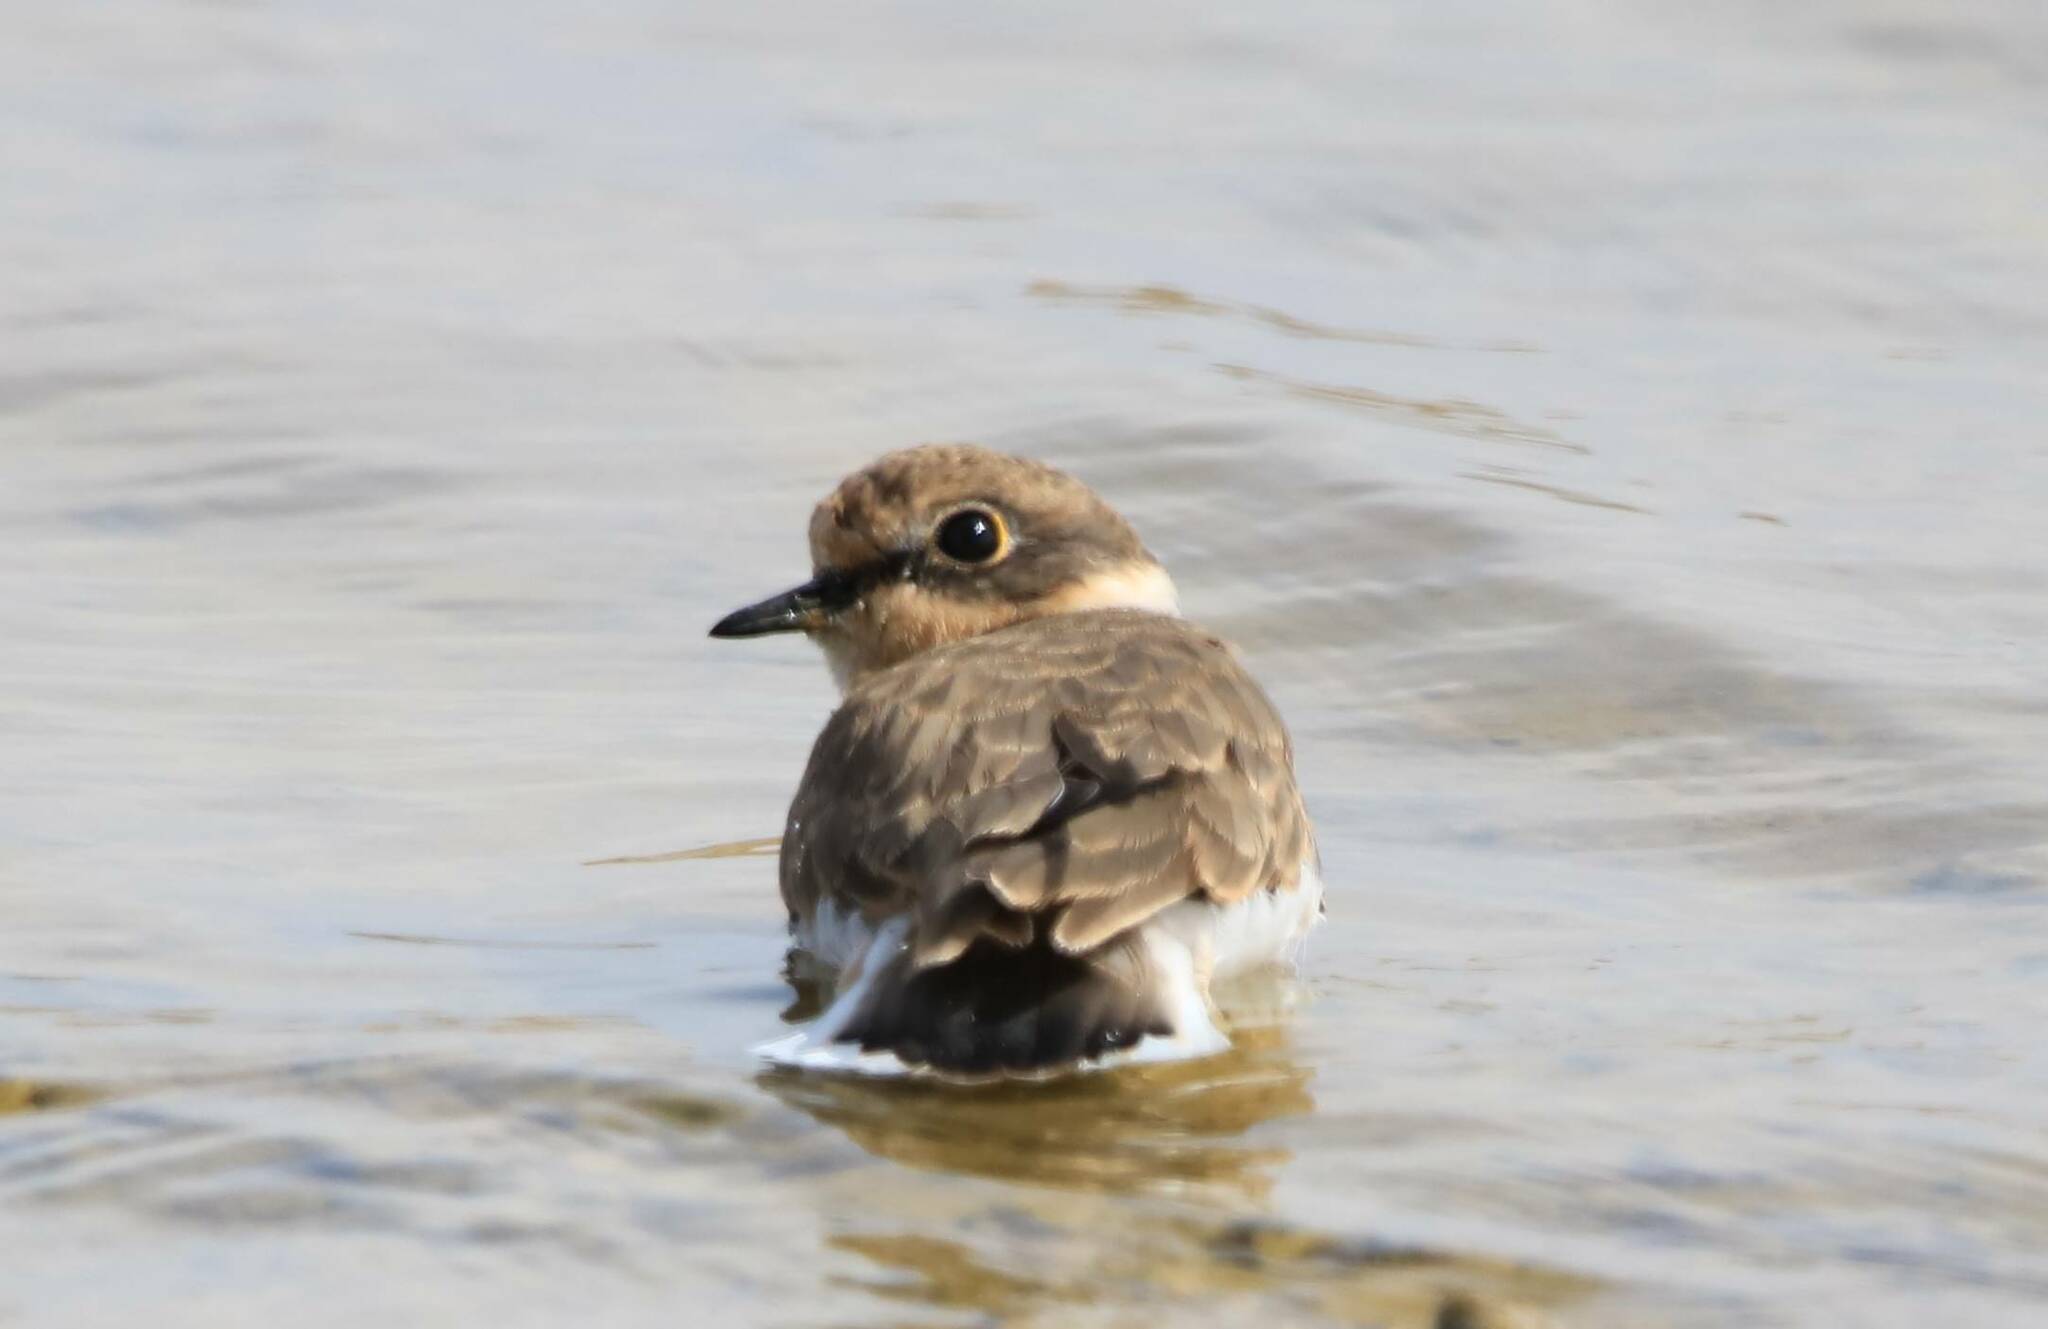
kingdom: Animalia
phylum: Chordata
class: Aves
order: Charadriiformes
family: Charadriidae
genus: Charadrius
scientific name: Charadrius dubius
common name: Little ringed plover
